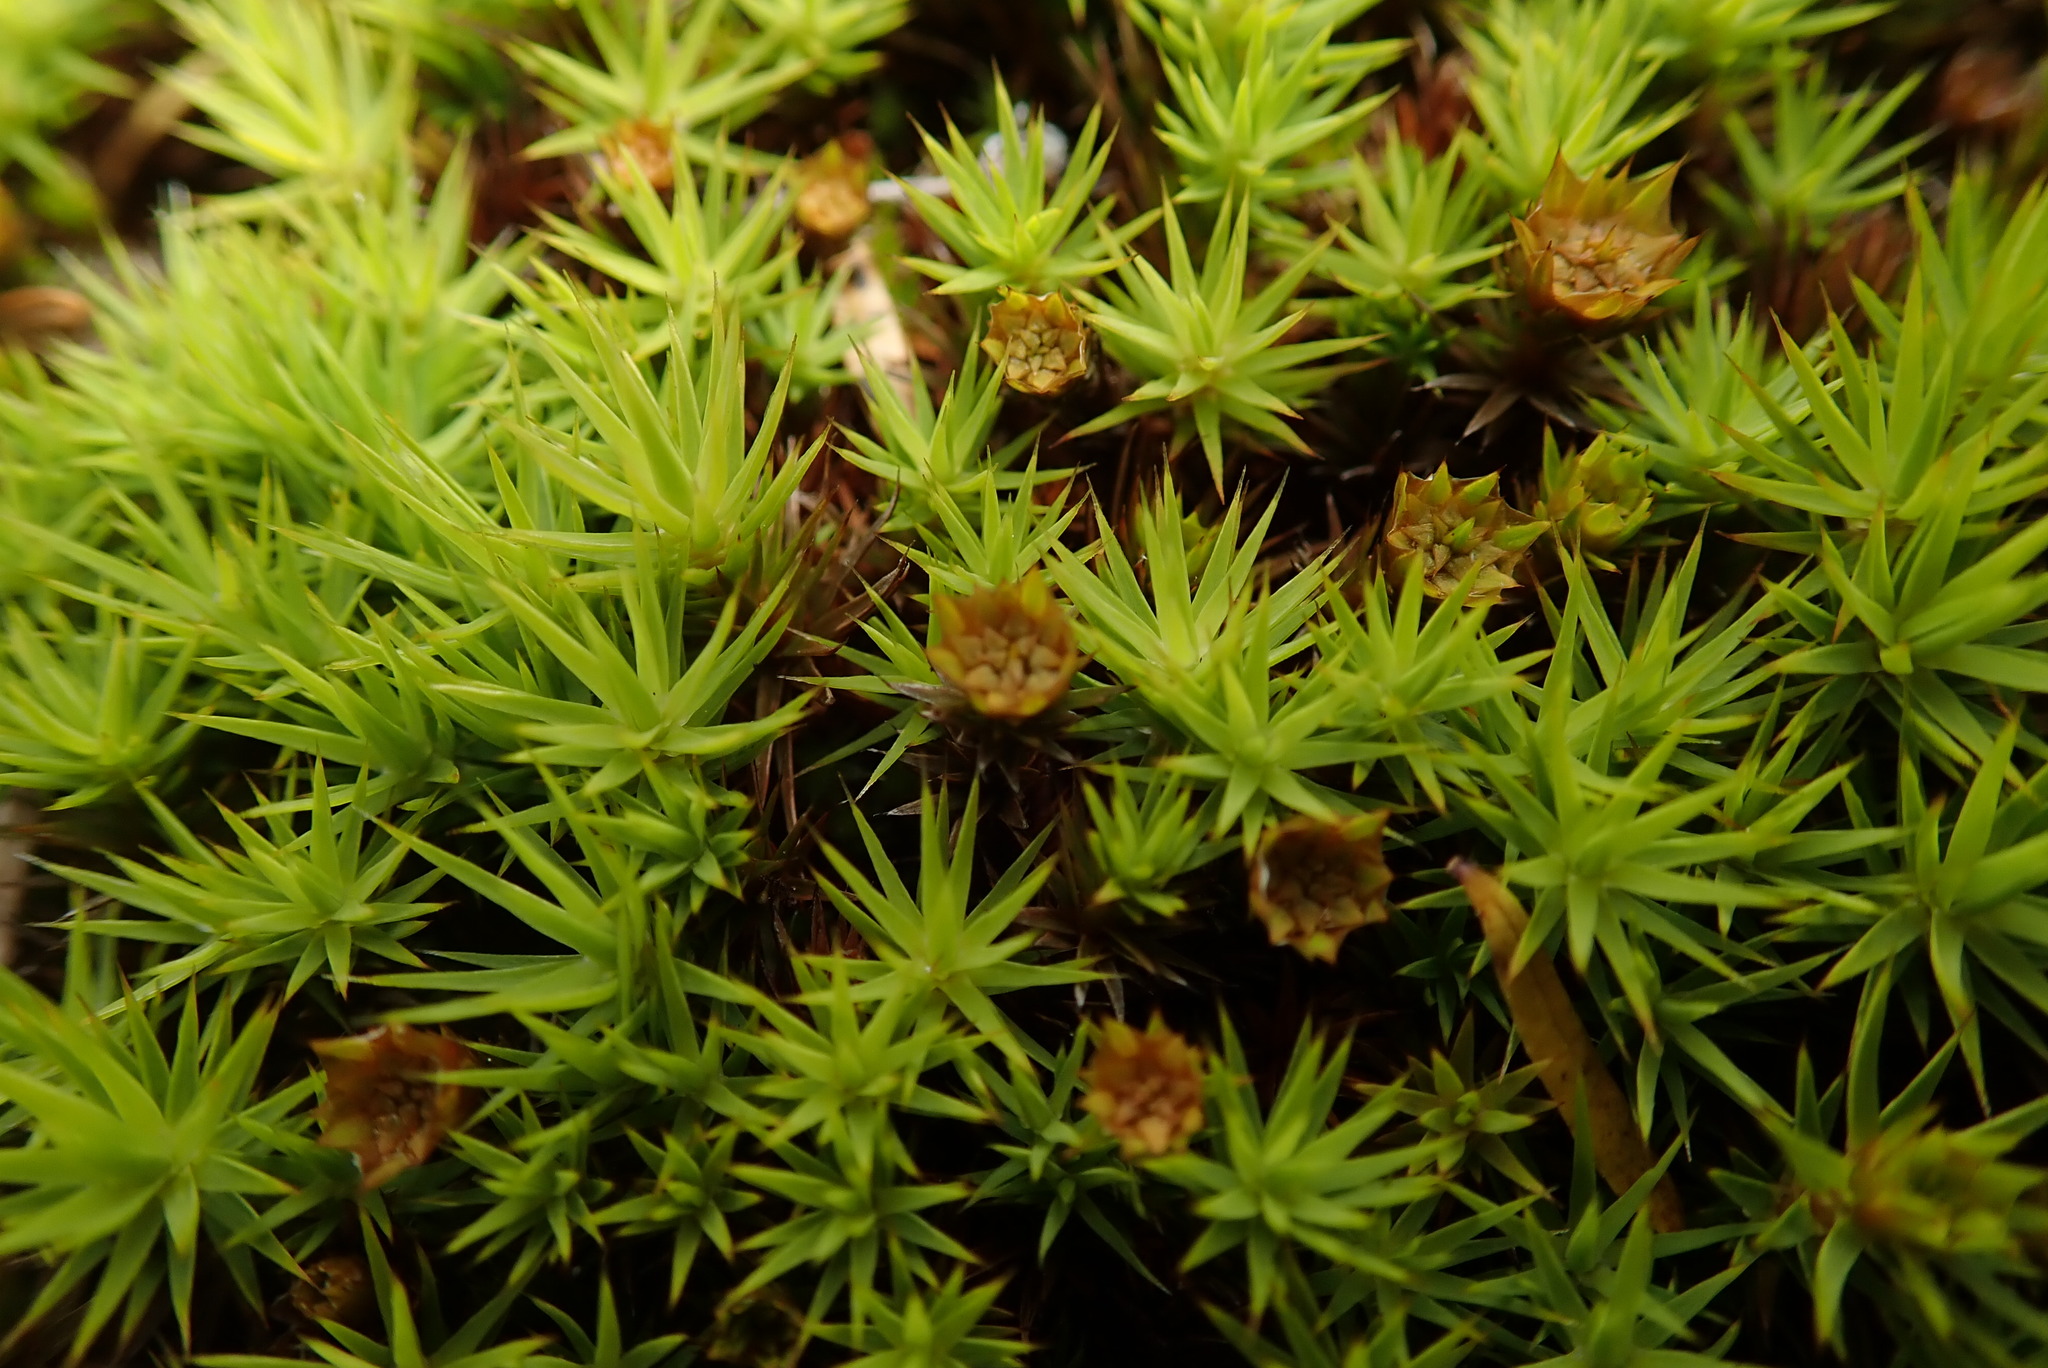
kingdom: Plantae
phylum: Bryophyta
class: Polytrichopsida
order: Polytrichales
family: Polytrichaceae
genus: Polytrichum
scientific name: Polytrichum commune
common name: Common haircap
